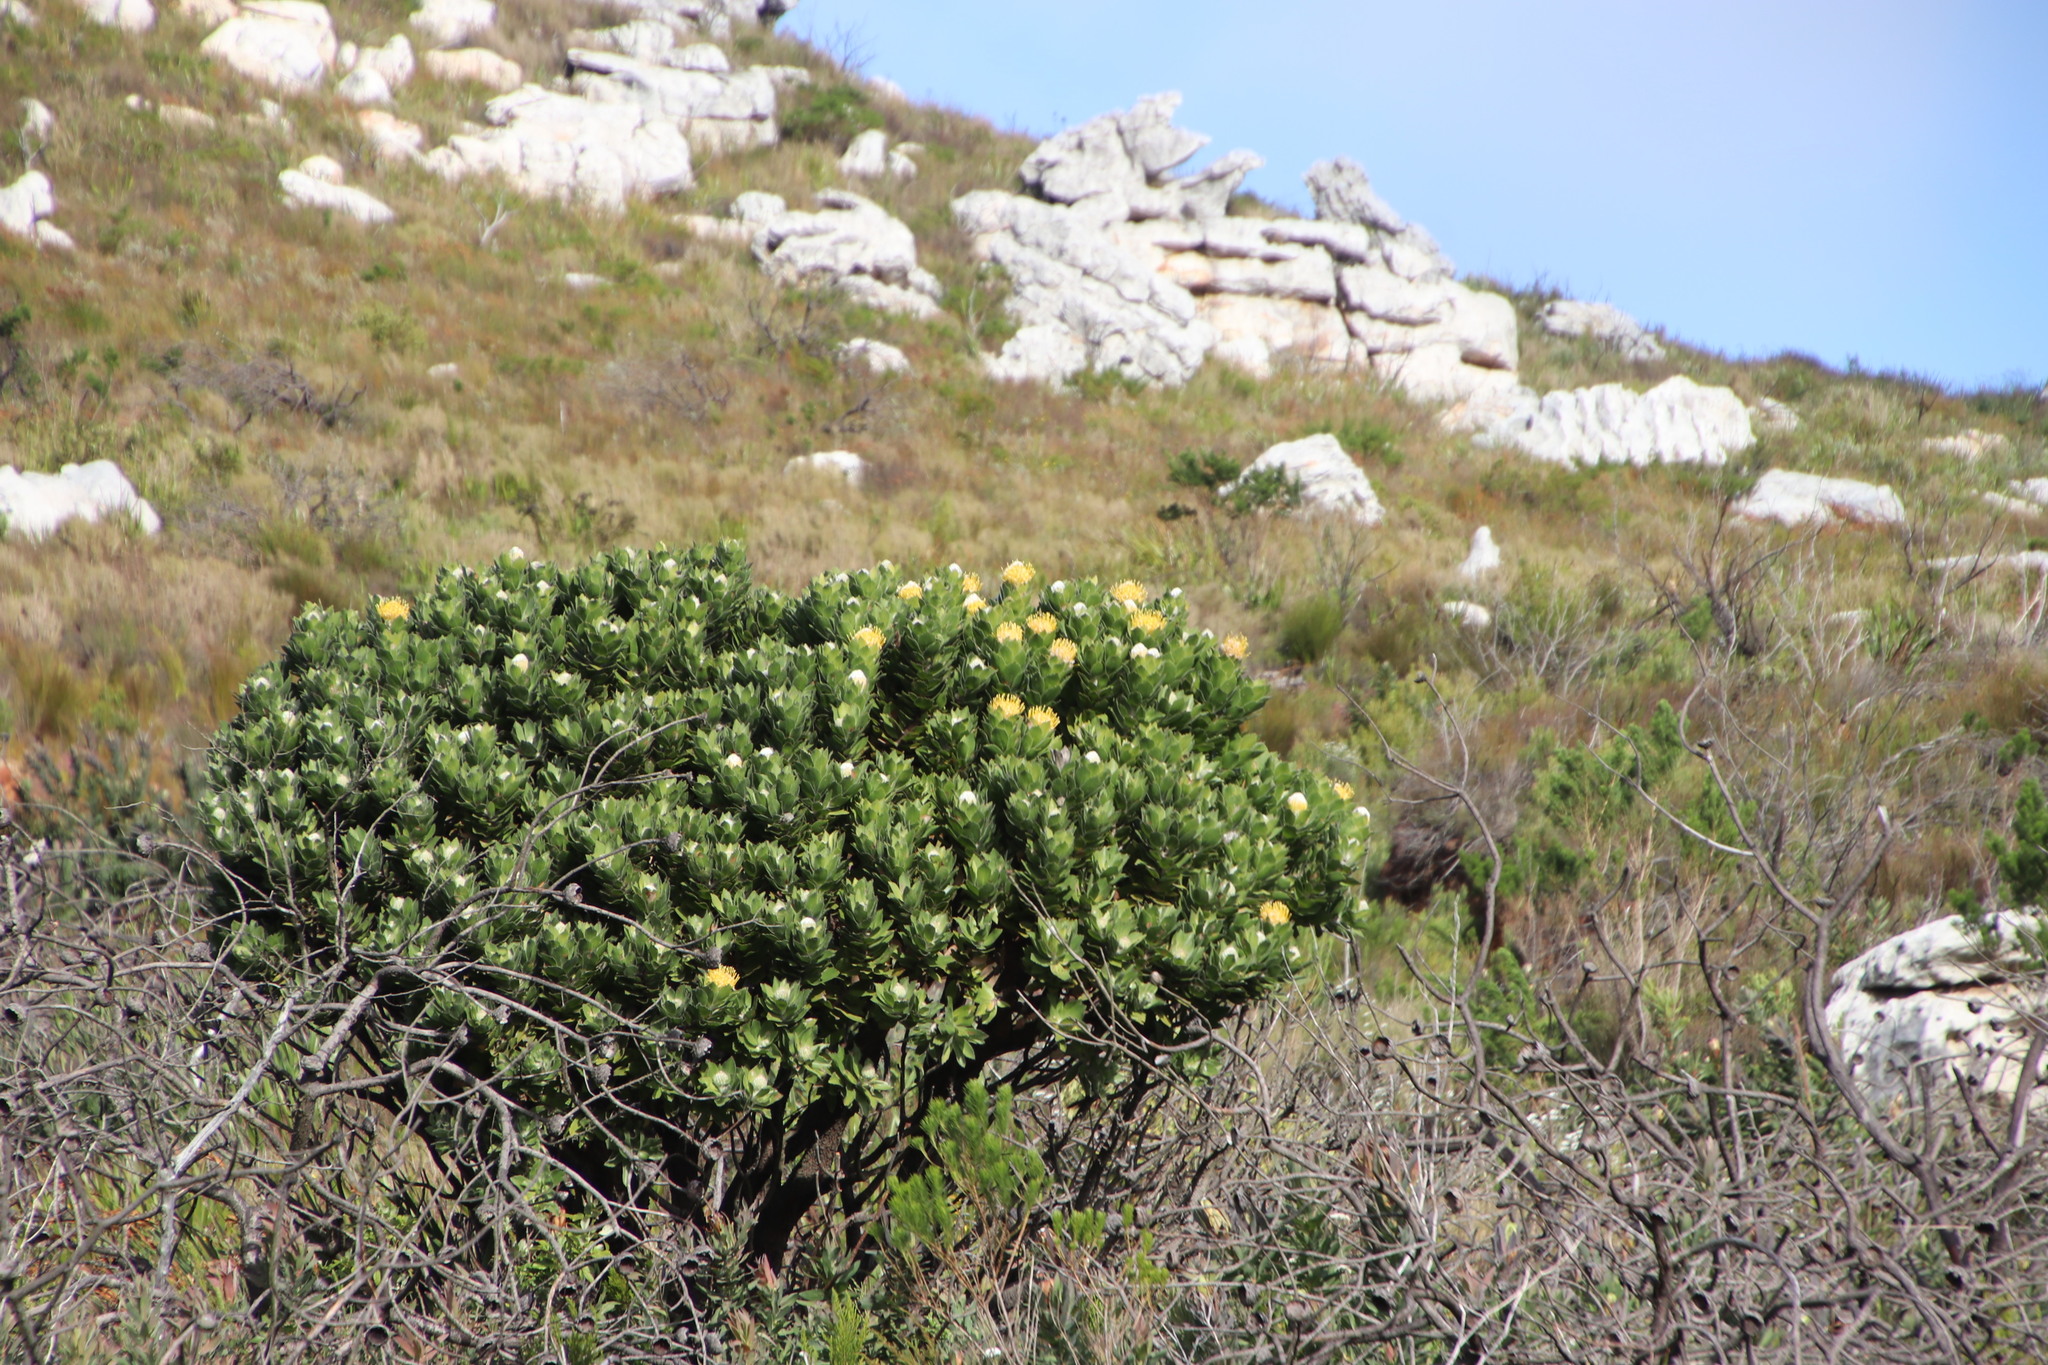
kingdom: Plantae
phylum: Tracheophyta
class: Magnoliopsida
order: Proteales
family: Proteaceae
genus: Leucospermum
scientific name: Leucospermum conocarpodendron
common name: Tree pincushion
